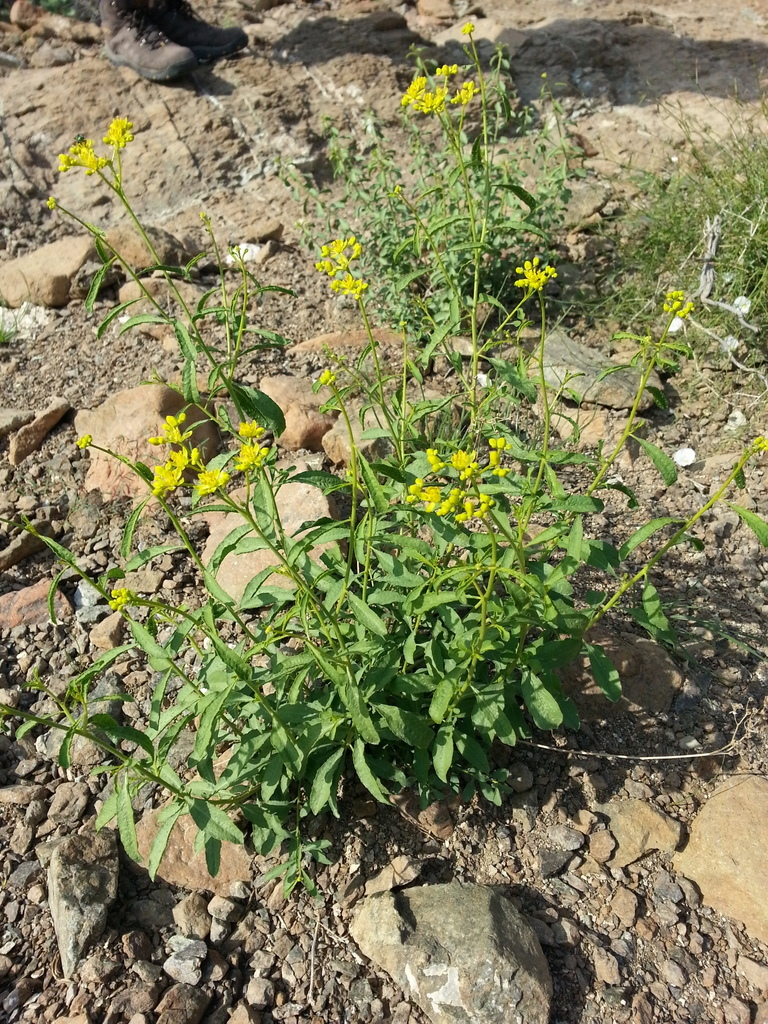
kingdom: Plantae
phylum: Tracheophyta
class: Magnoliopsida
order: Sapindales
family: Rutaceae
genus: Haplophyllum
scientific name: Haplophyllum tuberculatum
